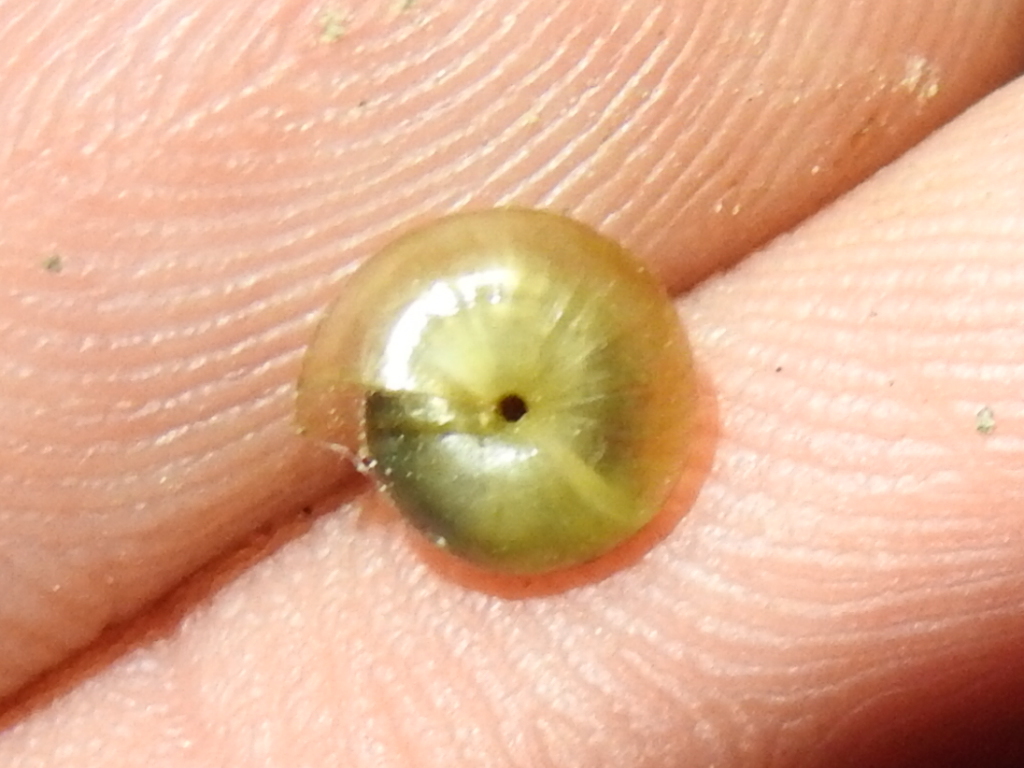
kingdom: Animalia
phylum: Mollusca
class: Gastropoda
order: Stylommatophora
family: Gastrodontidae
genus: Zonitoides
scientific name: Zonitoides arboreus
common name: Quick gloss
